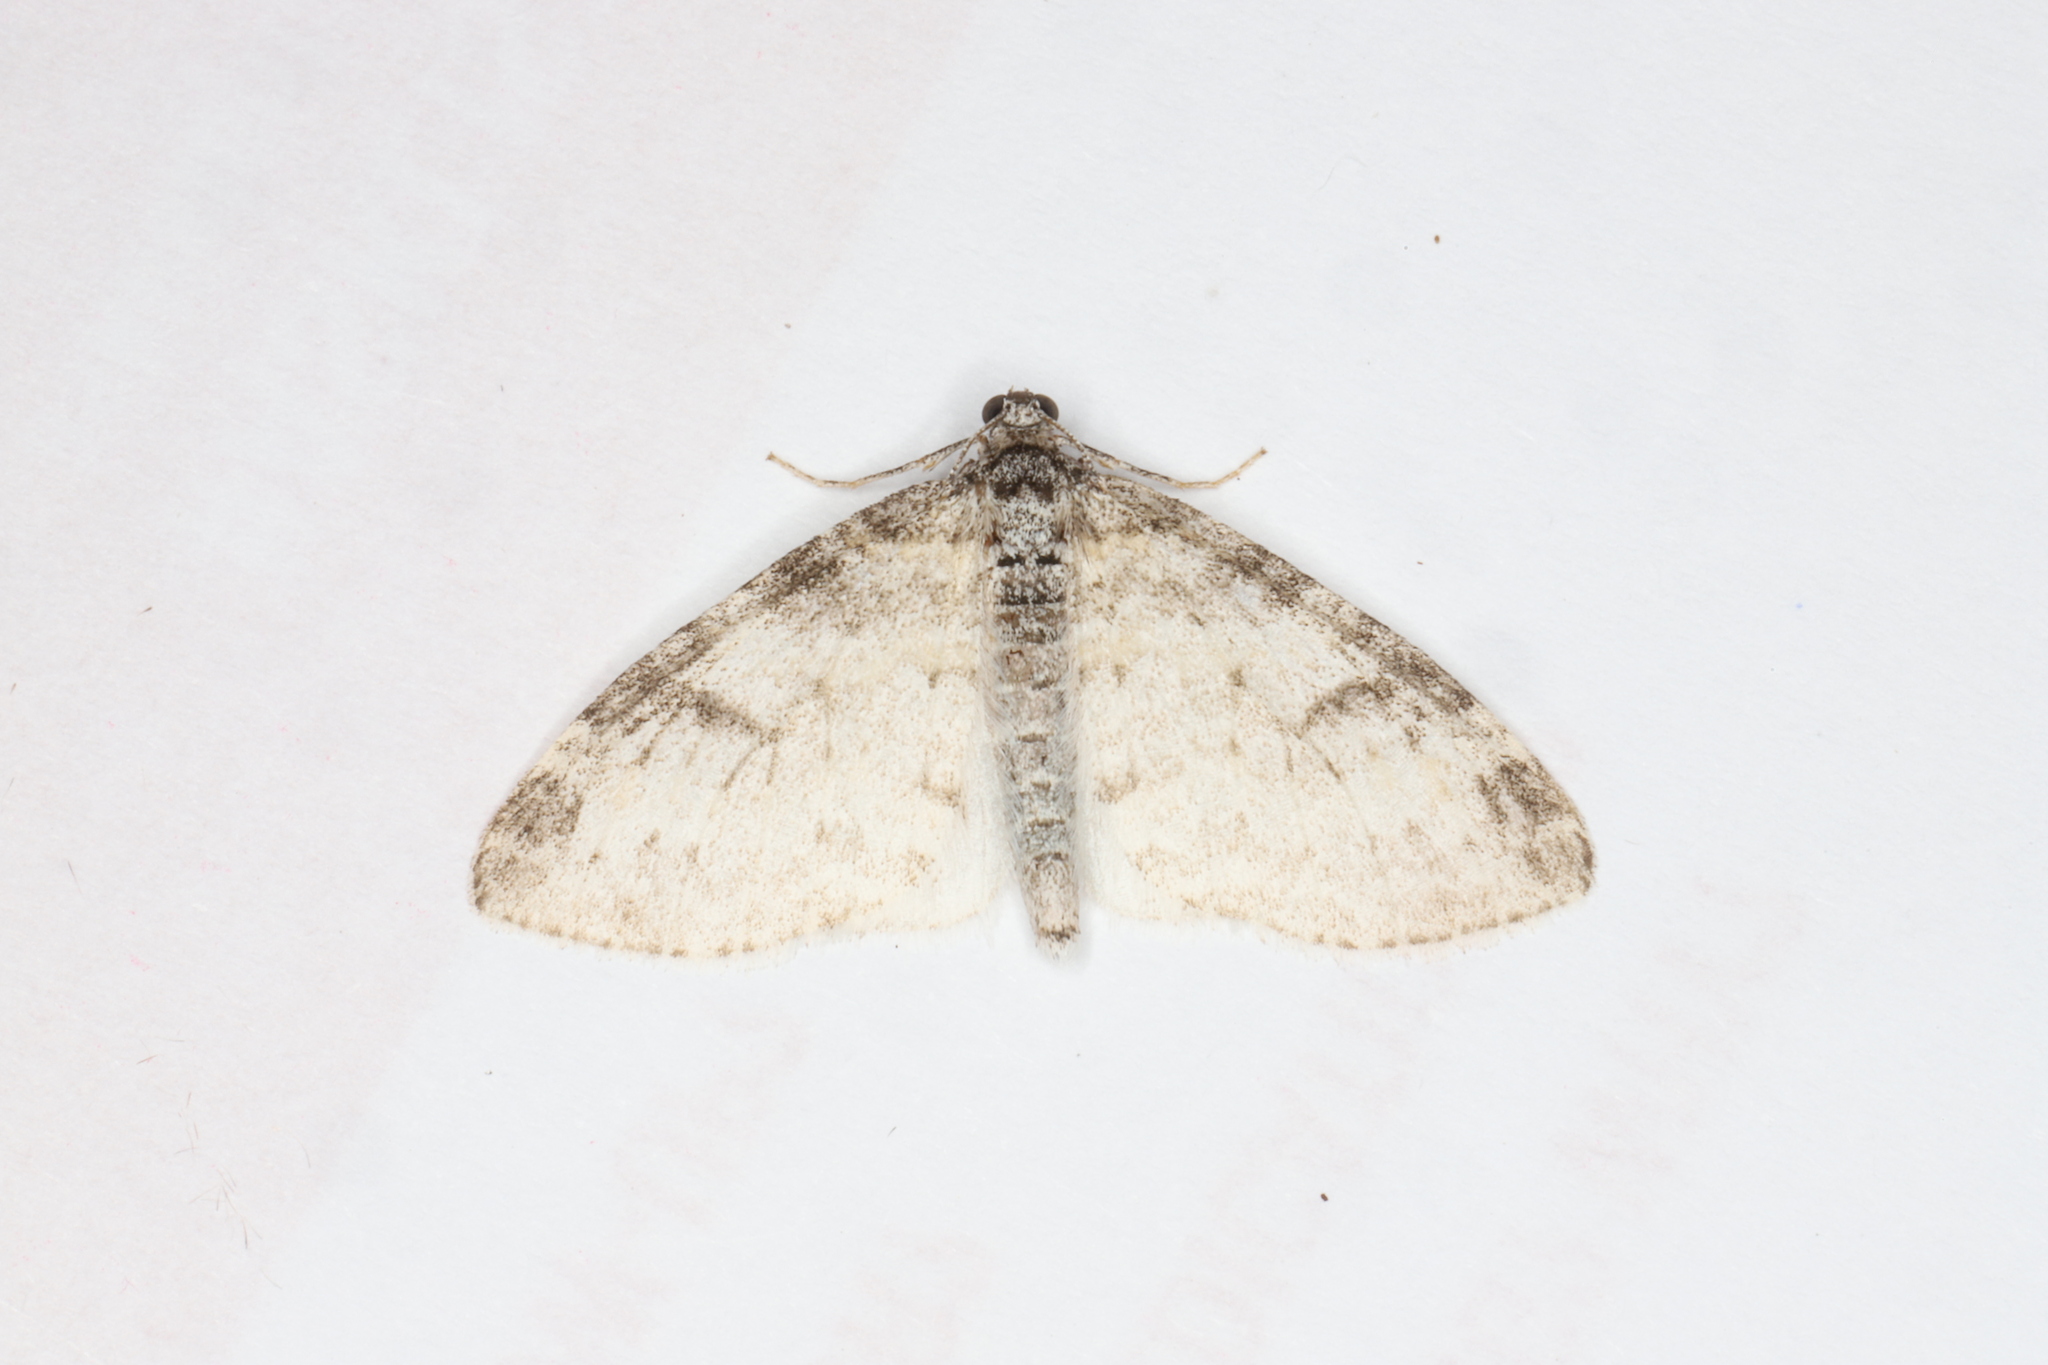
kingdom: Animalia
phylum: Arthropoda
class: Insecta
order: Lepidoptera
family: Geometridae
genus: Lobophora
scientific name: Lobophora nivigerata
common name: Powdered bigwing
